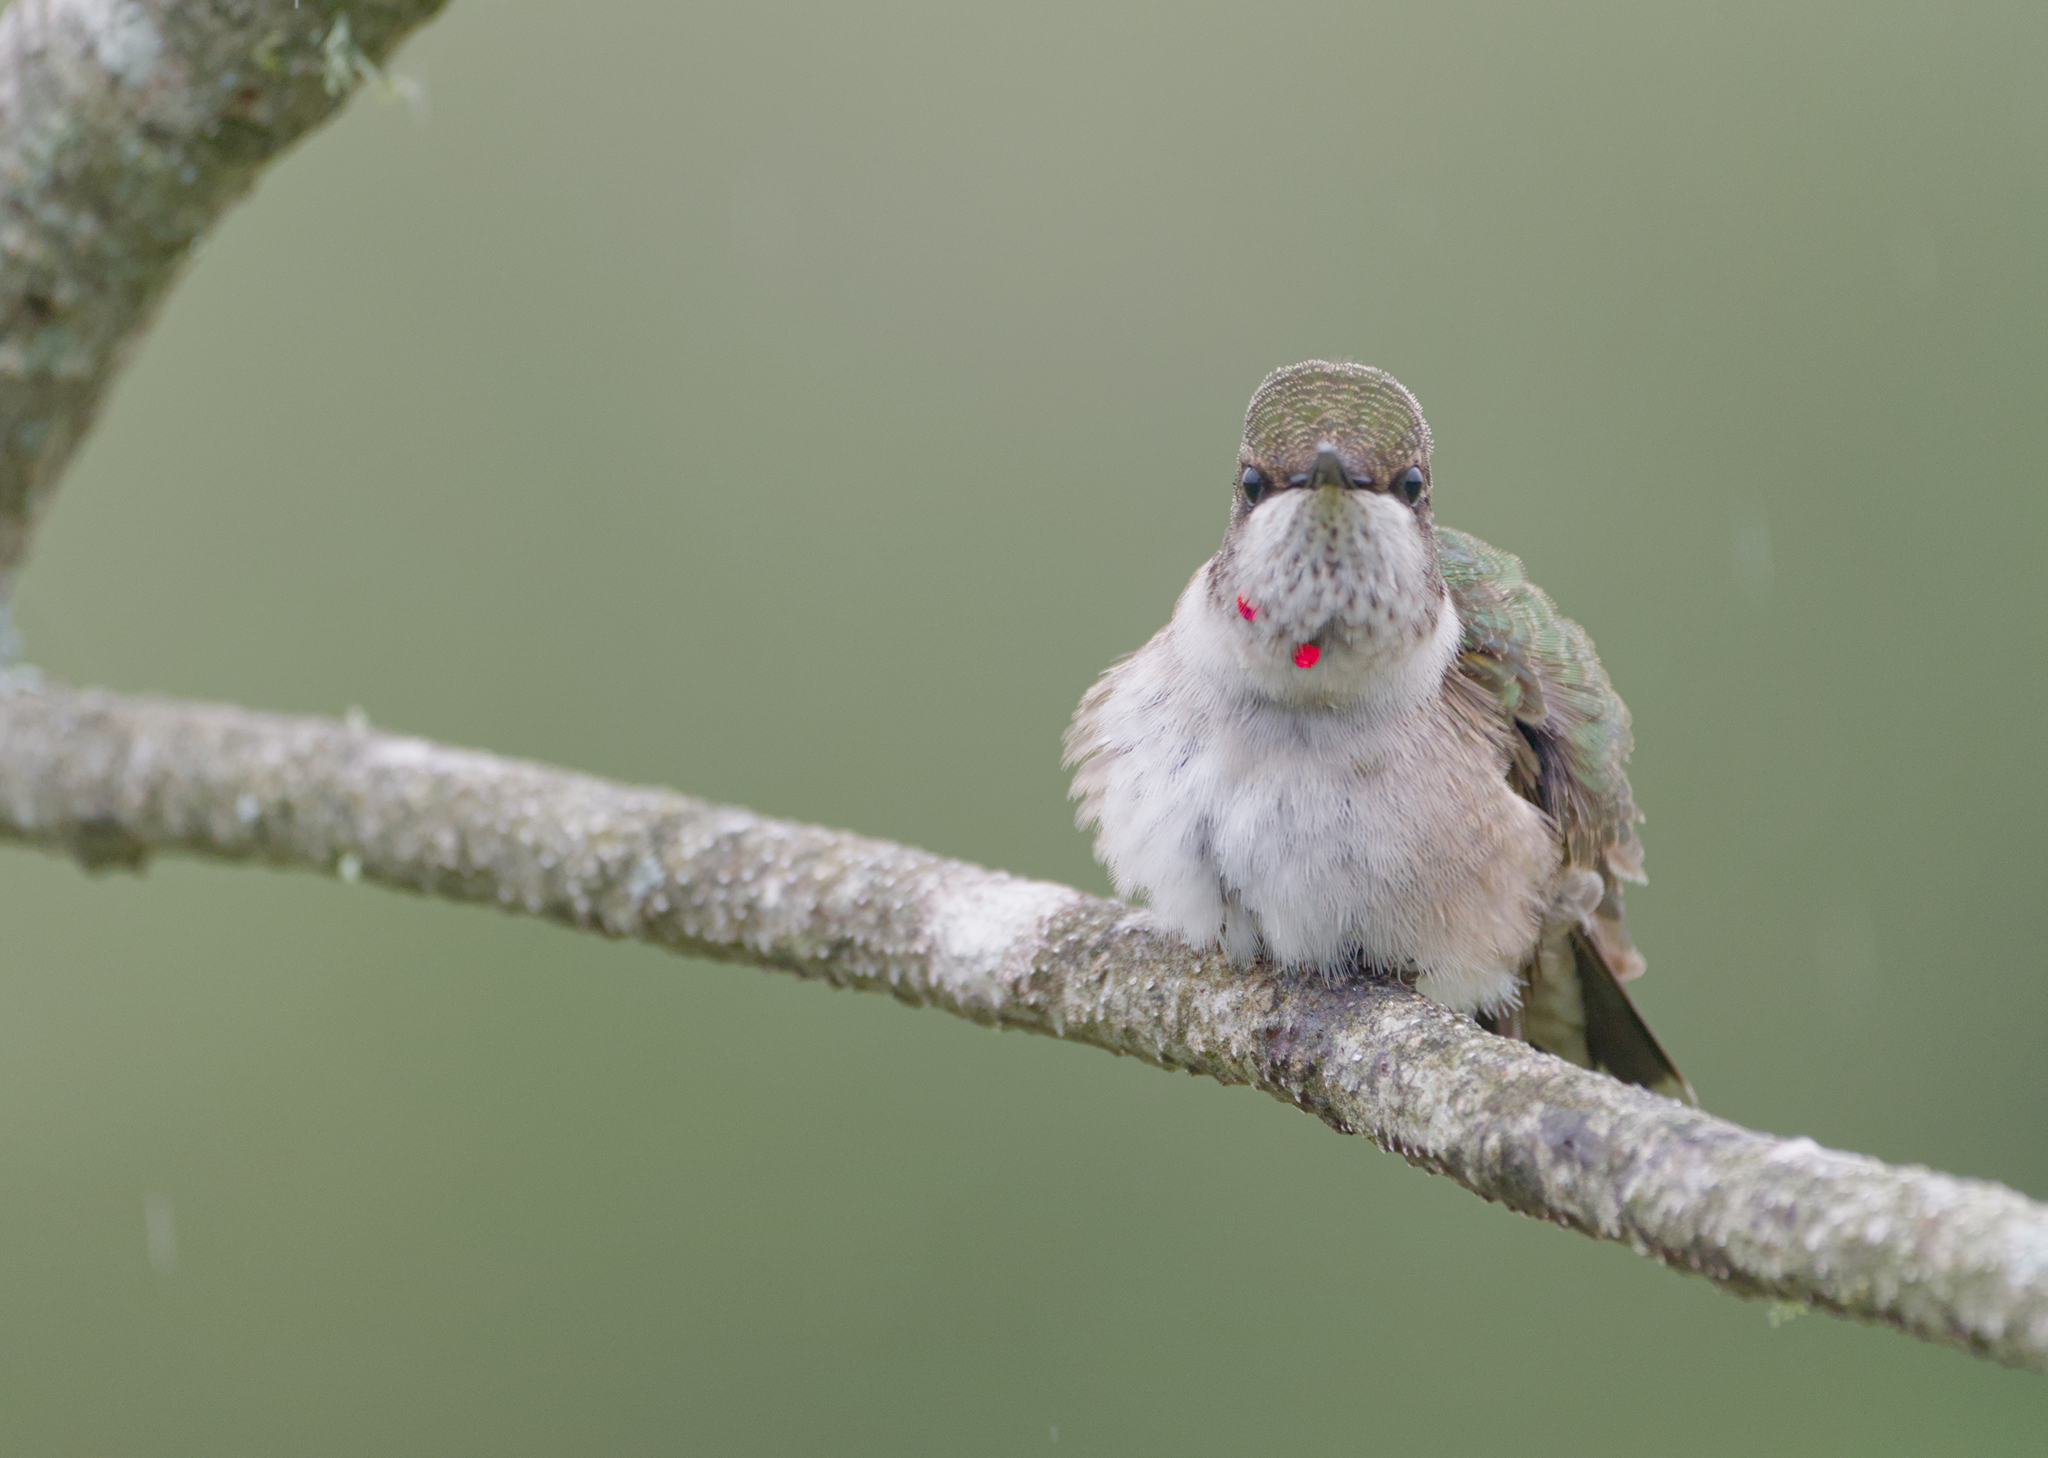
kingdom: Animalia
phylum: Chordata
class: Aves
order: Apodiformes
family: Trochilidae
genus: Archilochus
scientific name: Archilochus colubris
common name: Ruby-throated hummingbird
